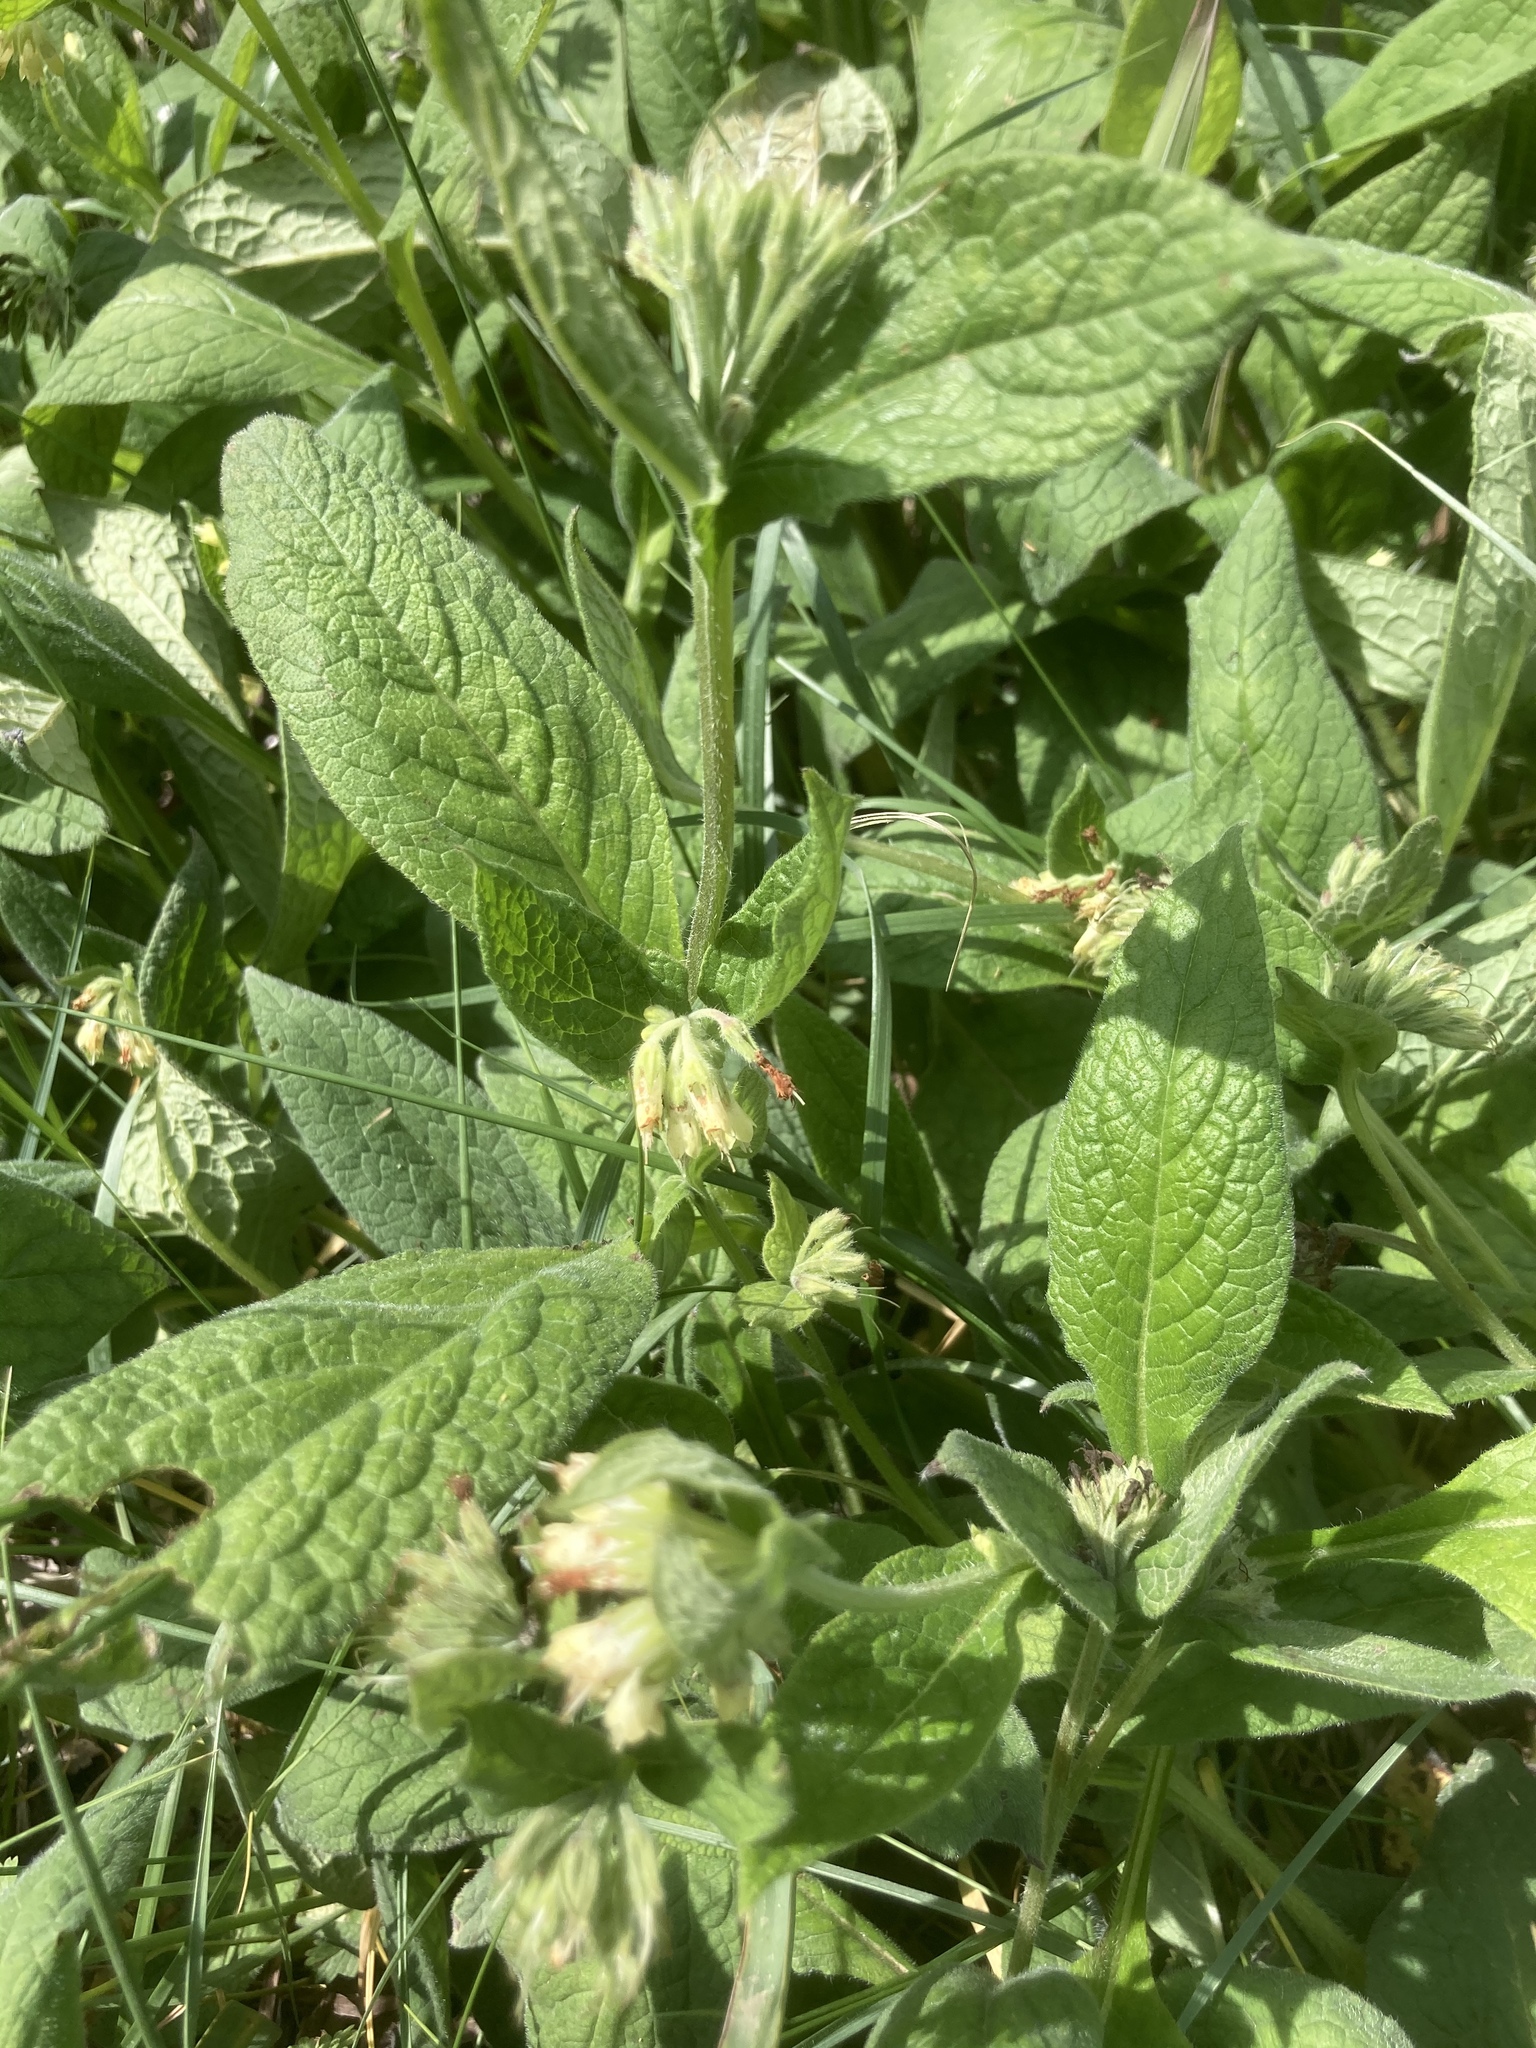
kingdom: Plantae
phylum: Tracheophyta
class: Magnoliopsida
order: Boraginales
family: Boraginaceae
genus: Symphytum
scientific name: Symphytum bulbosum
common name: Bulbous comfrey
